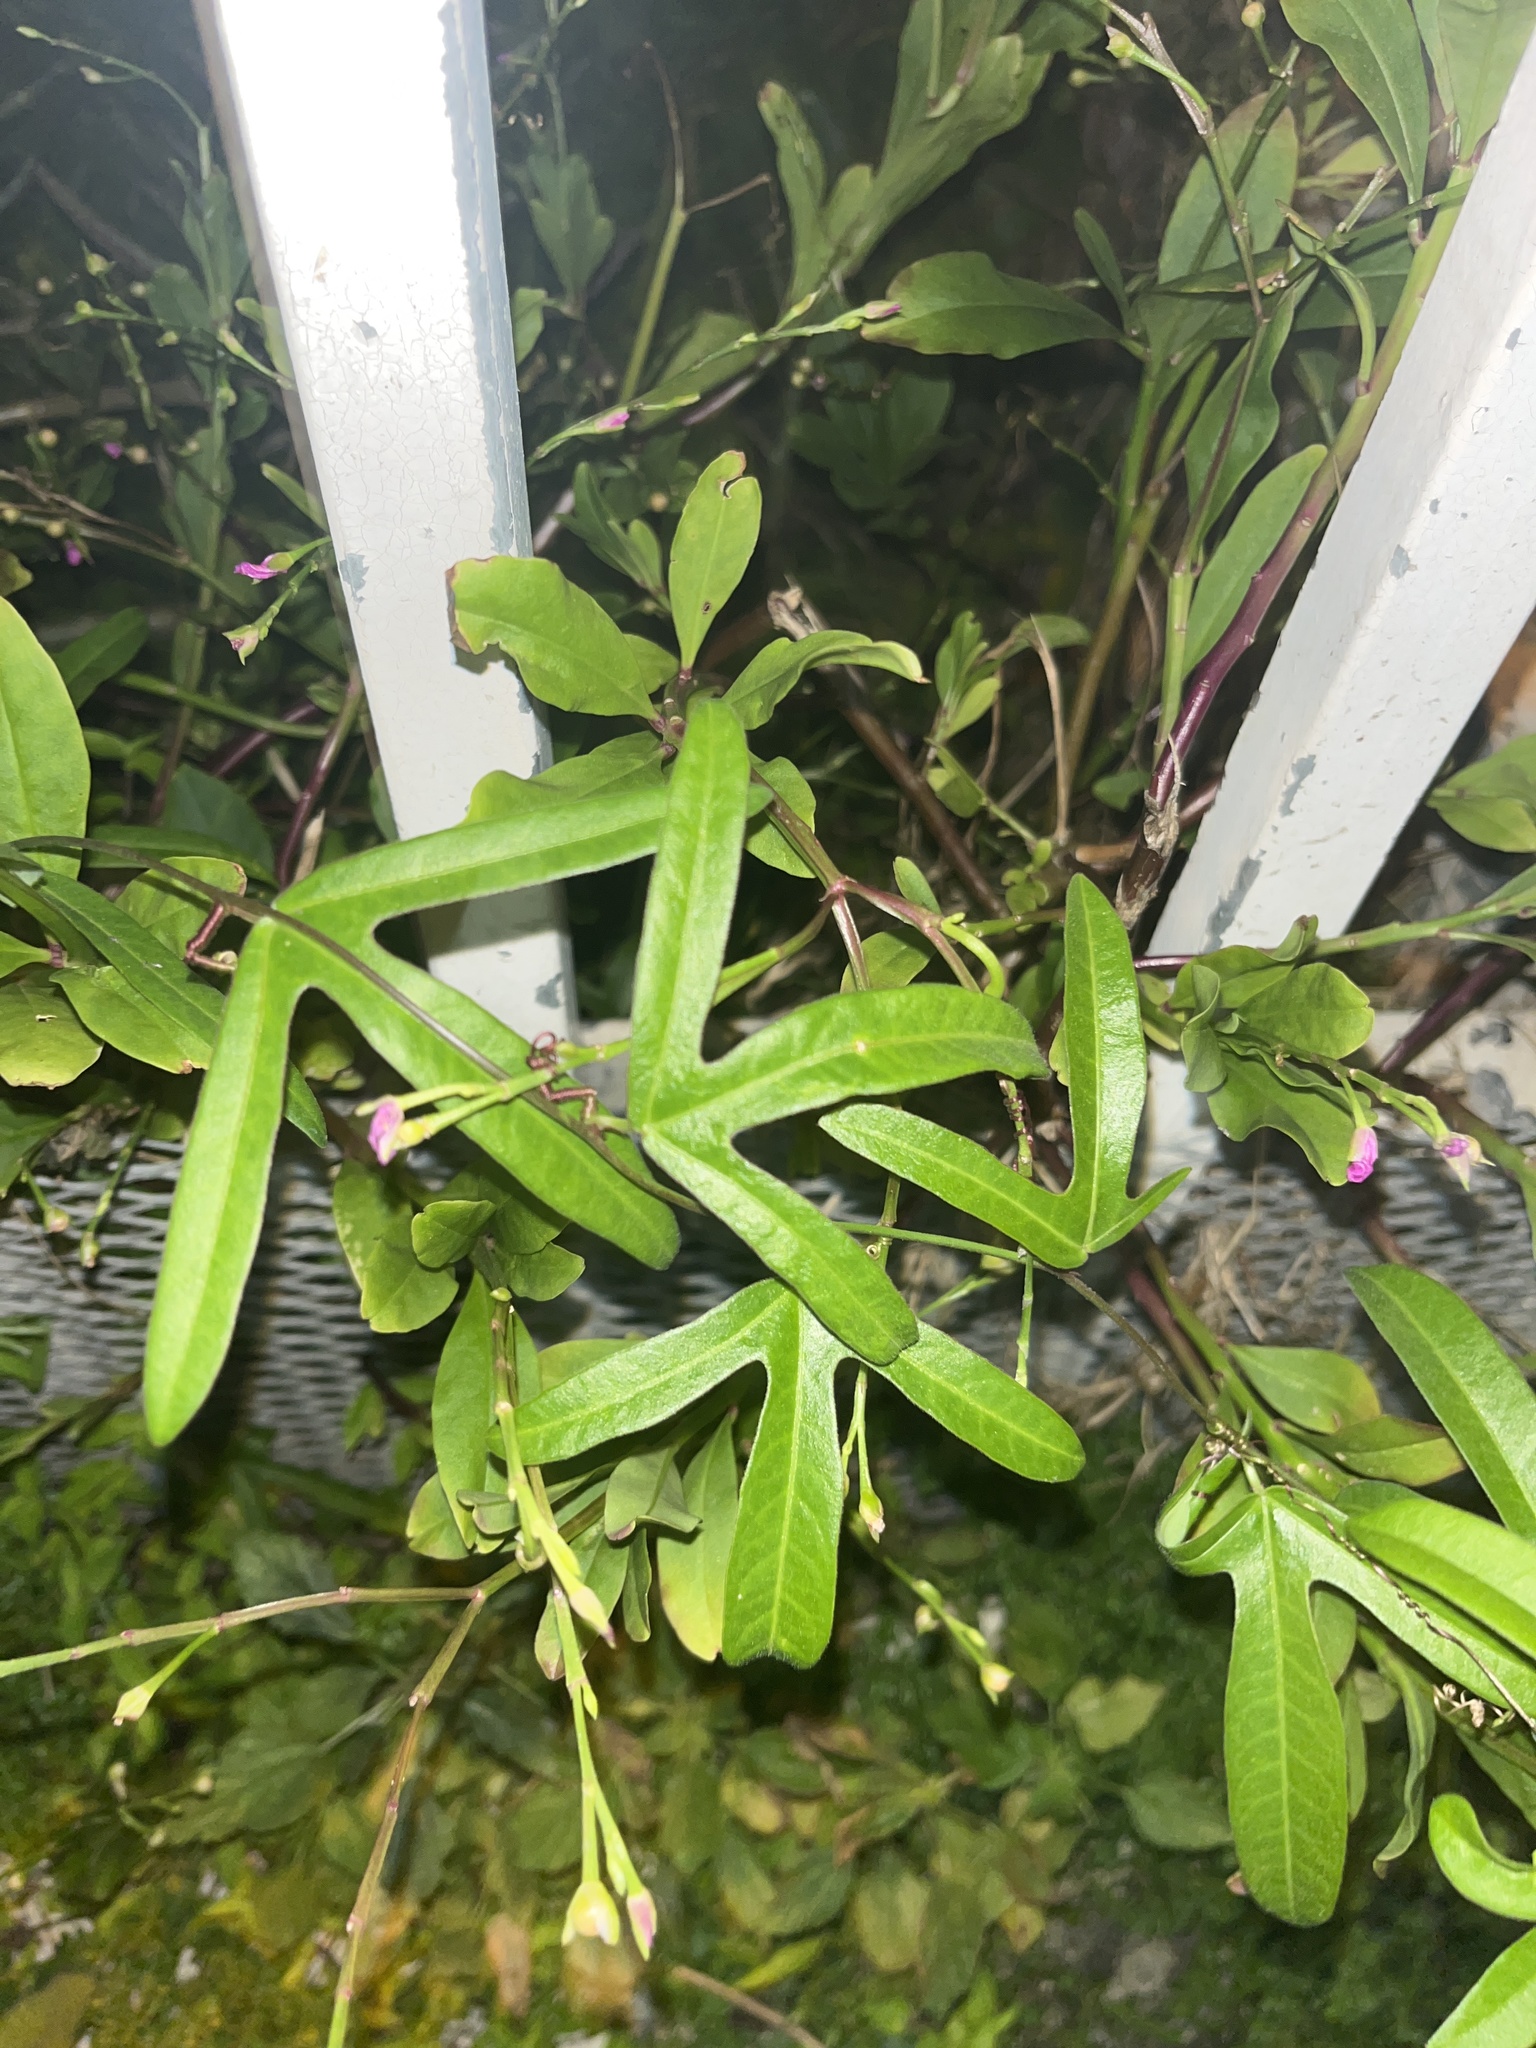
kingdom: Plantae
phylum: Tracheophyta
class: Magnoliopsida
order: Malpighiales
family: Passifloraceae
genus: Passiflora
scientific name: Passiflora suberosa
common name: Wild passionfruit
